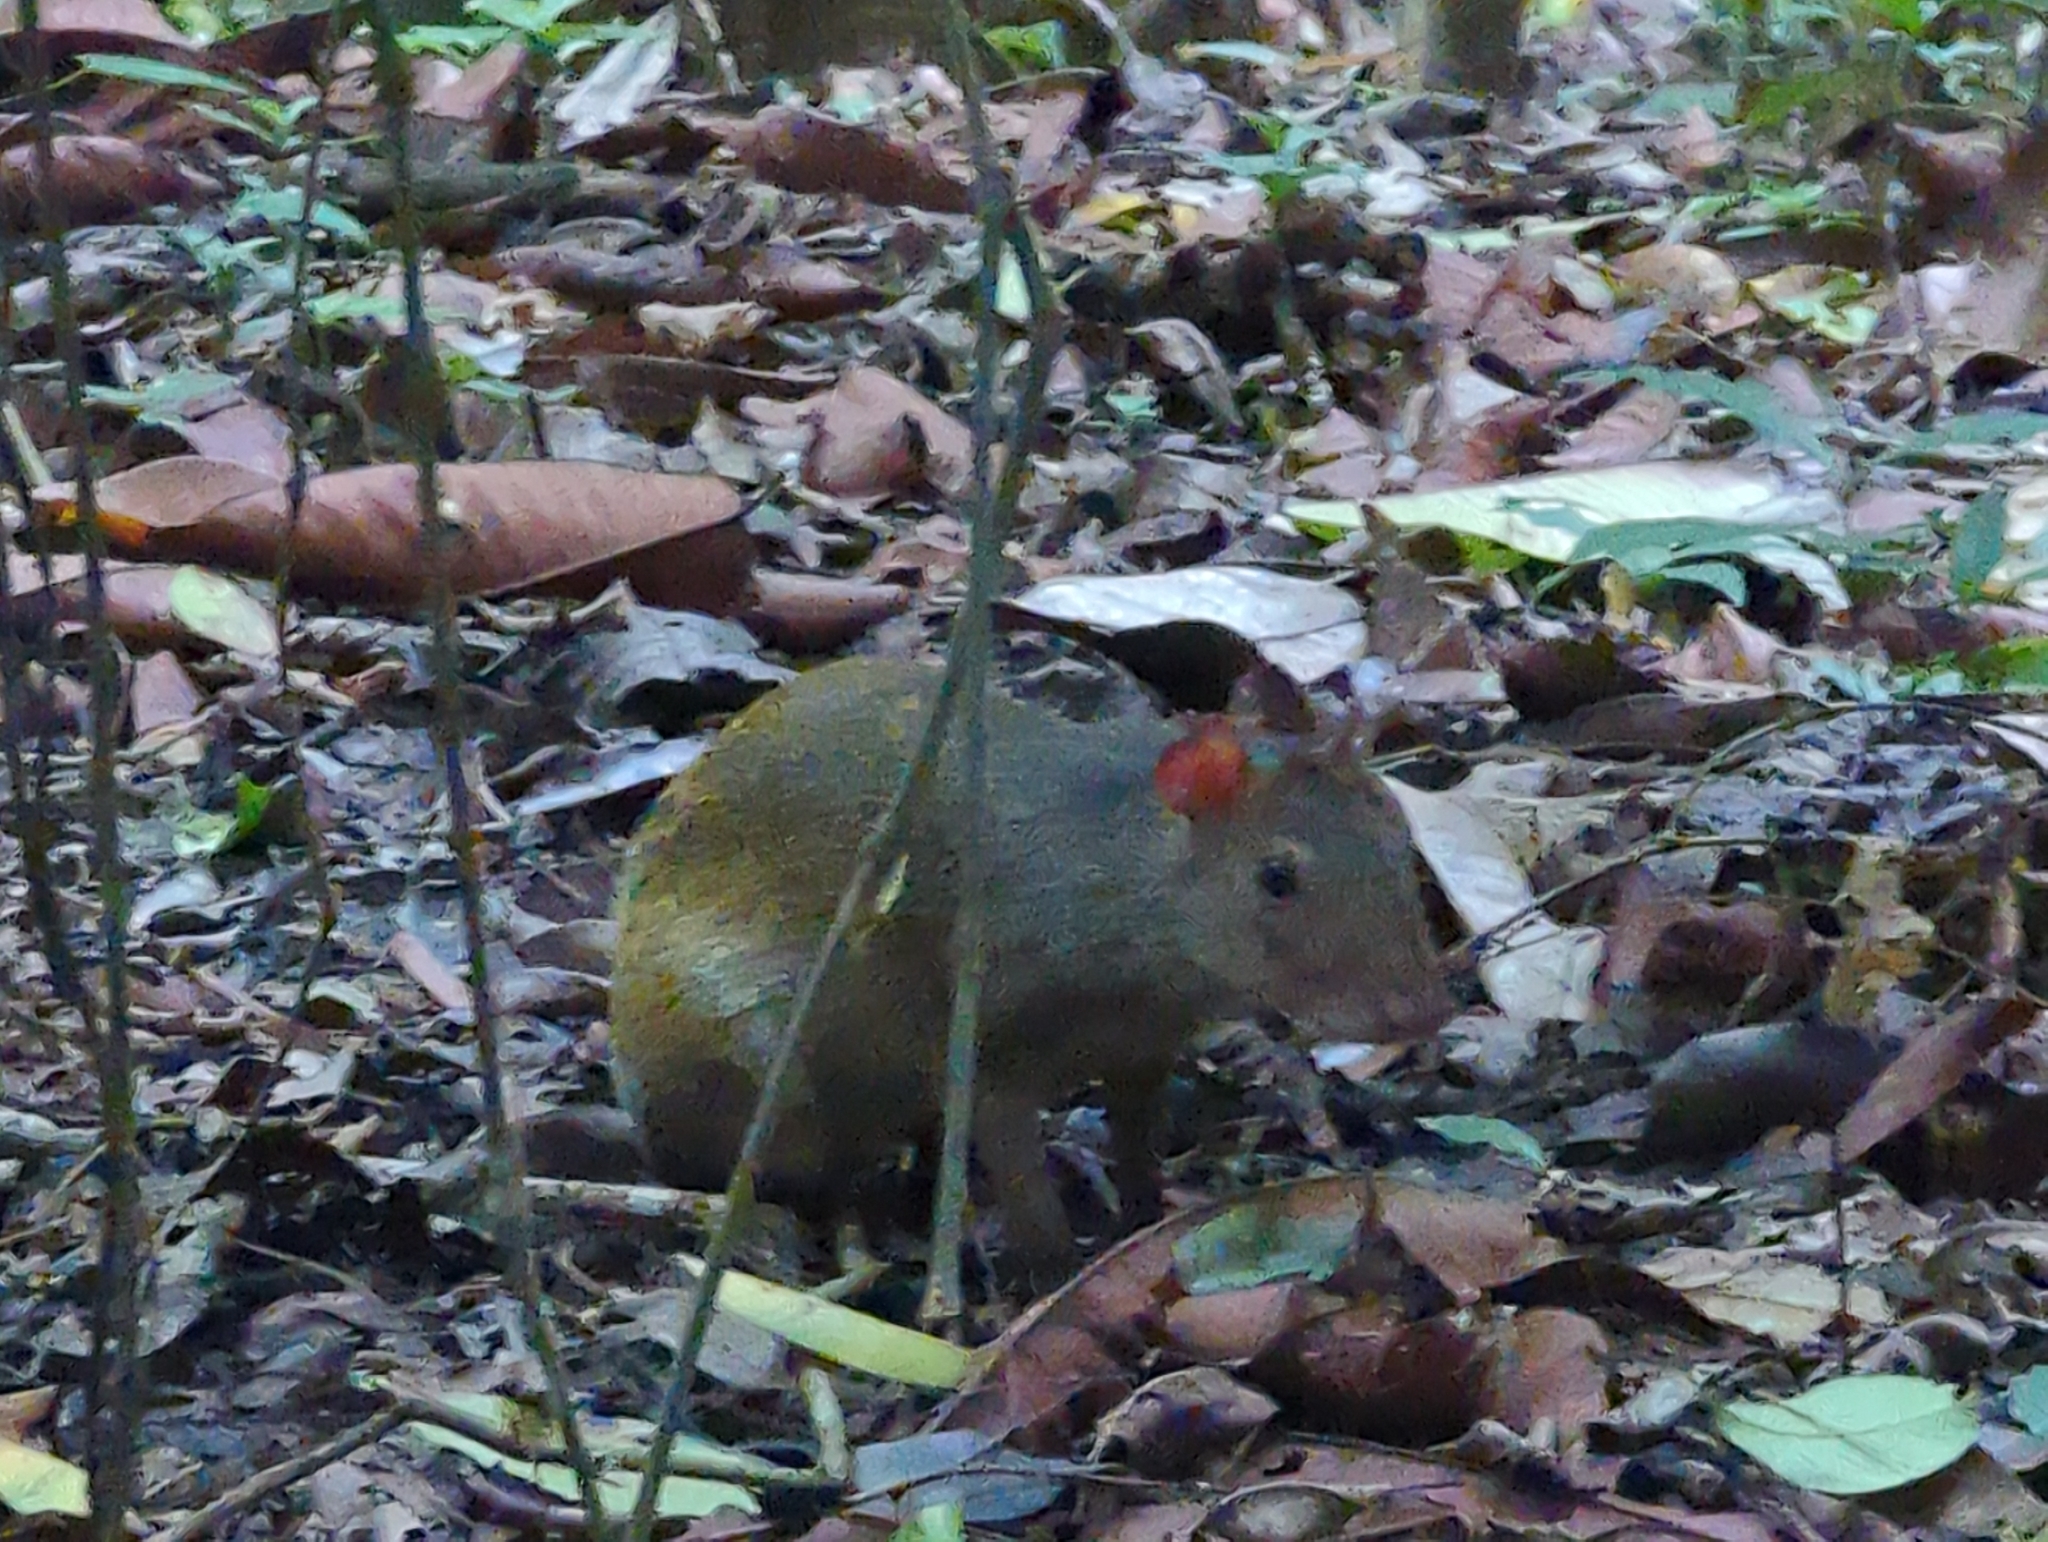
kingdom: Animalia
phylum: Chordata
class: Mammalia
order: Rodentia
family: Dasyproctidae
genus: Dasyprocta
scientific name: Dasyprocta punctata
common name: Central american agouti
